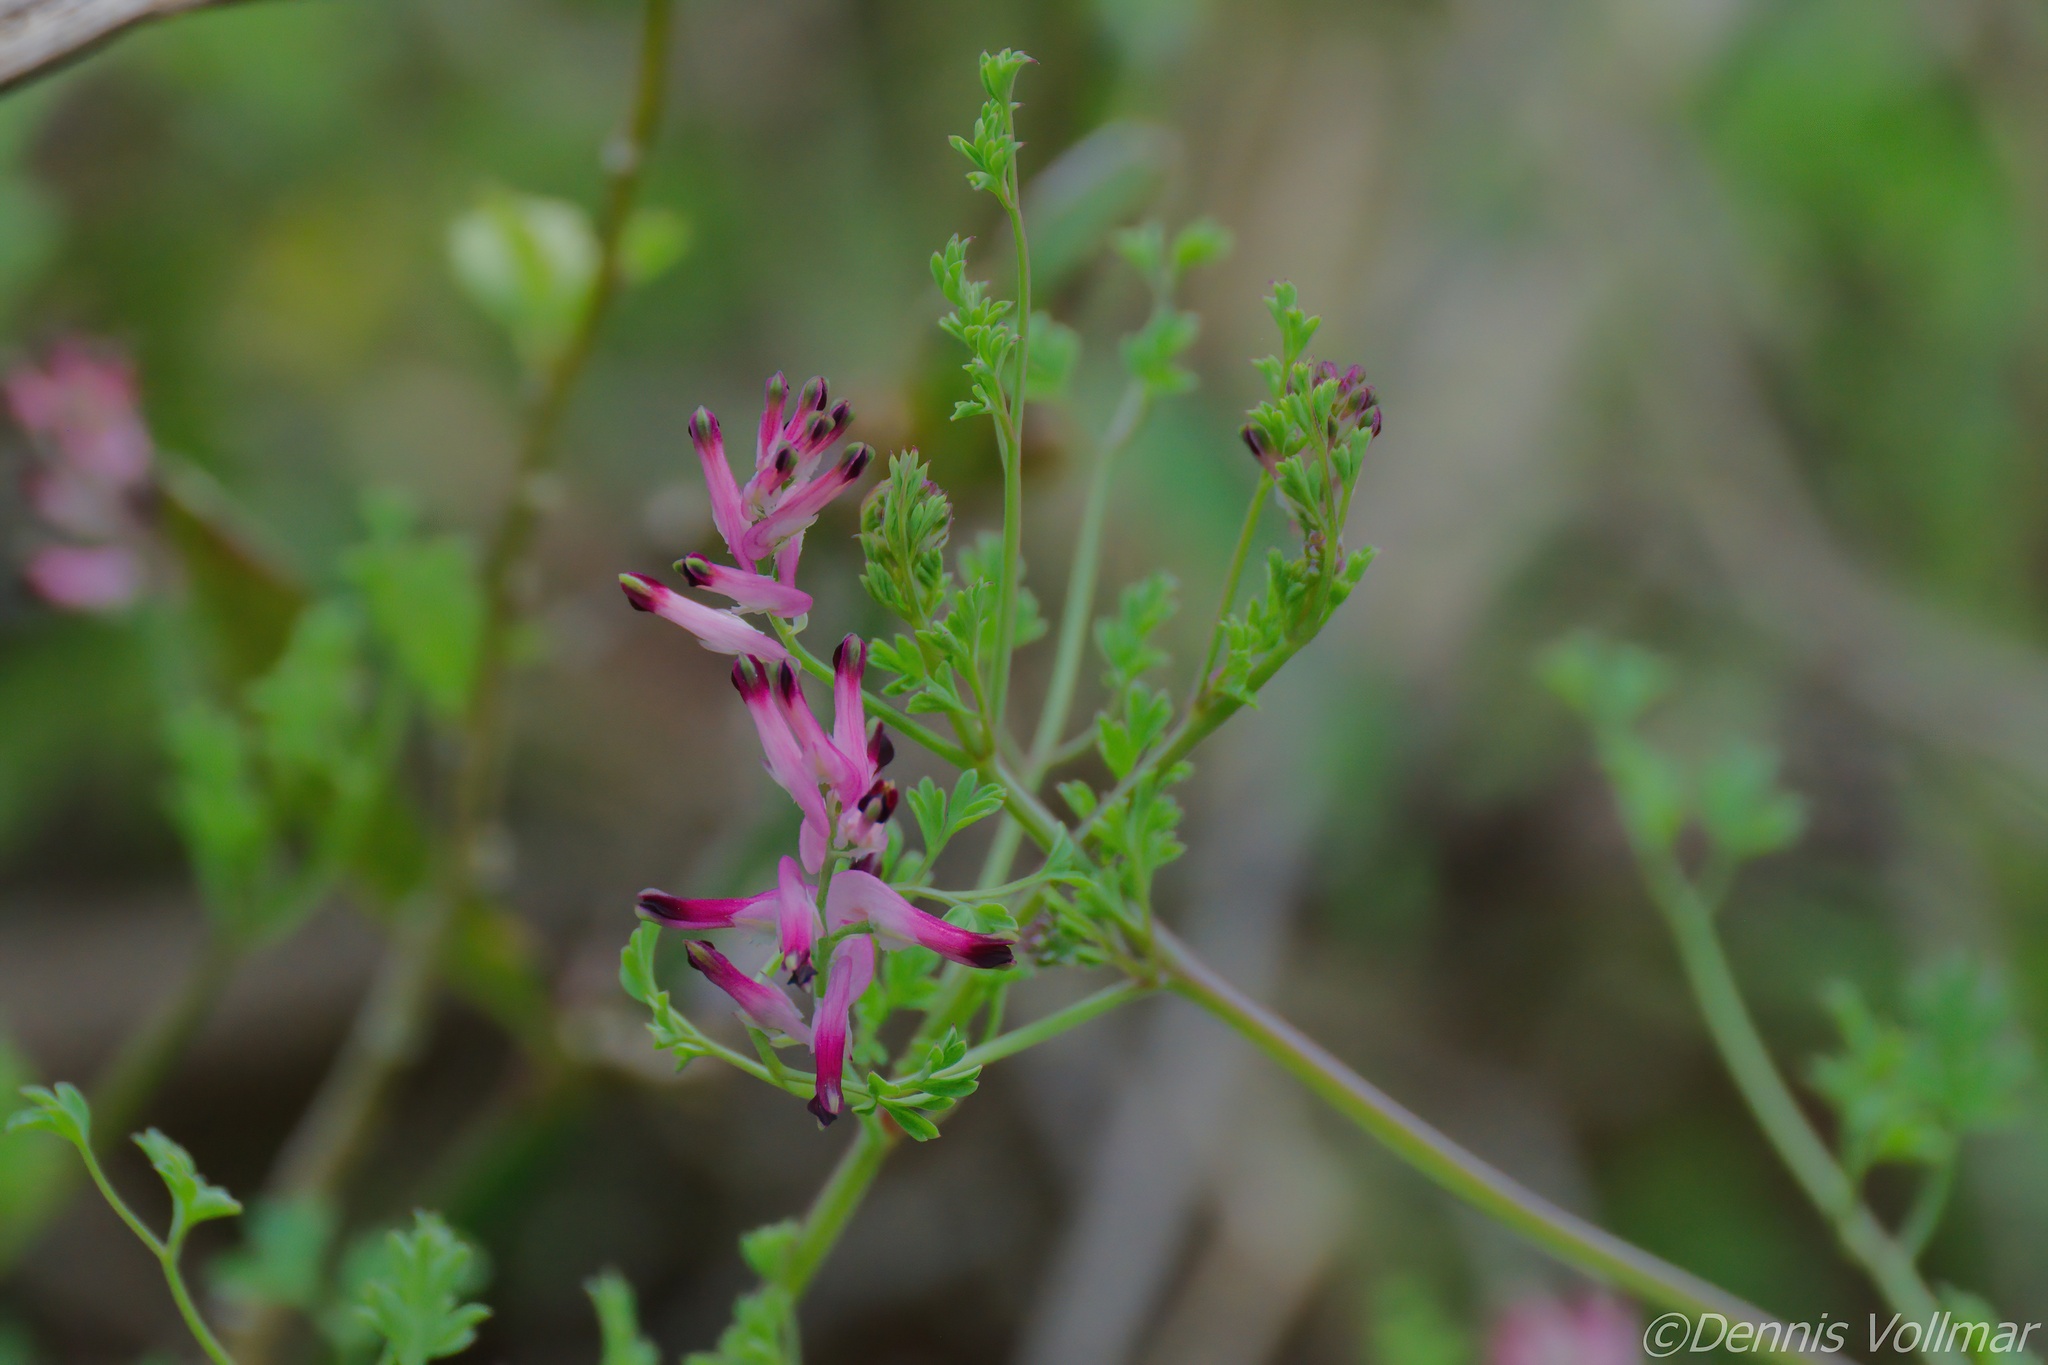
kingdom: Plantae
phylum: Tracheophyta
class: Magnoliopsida
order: Ranunculales
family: Papaveraceae
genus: Fumaria
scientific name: Fumaria muralis
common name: Common ramping-fumitory
